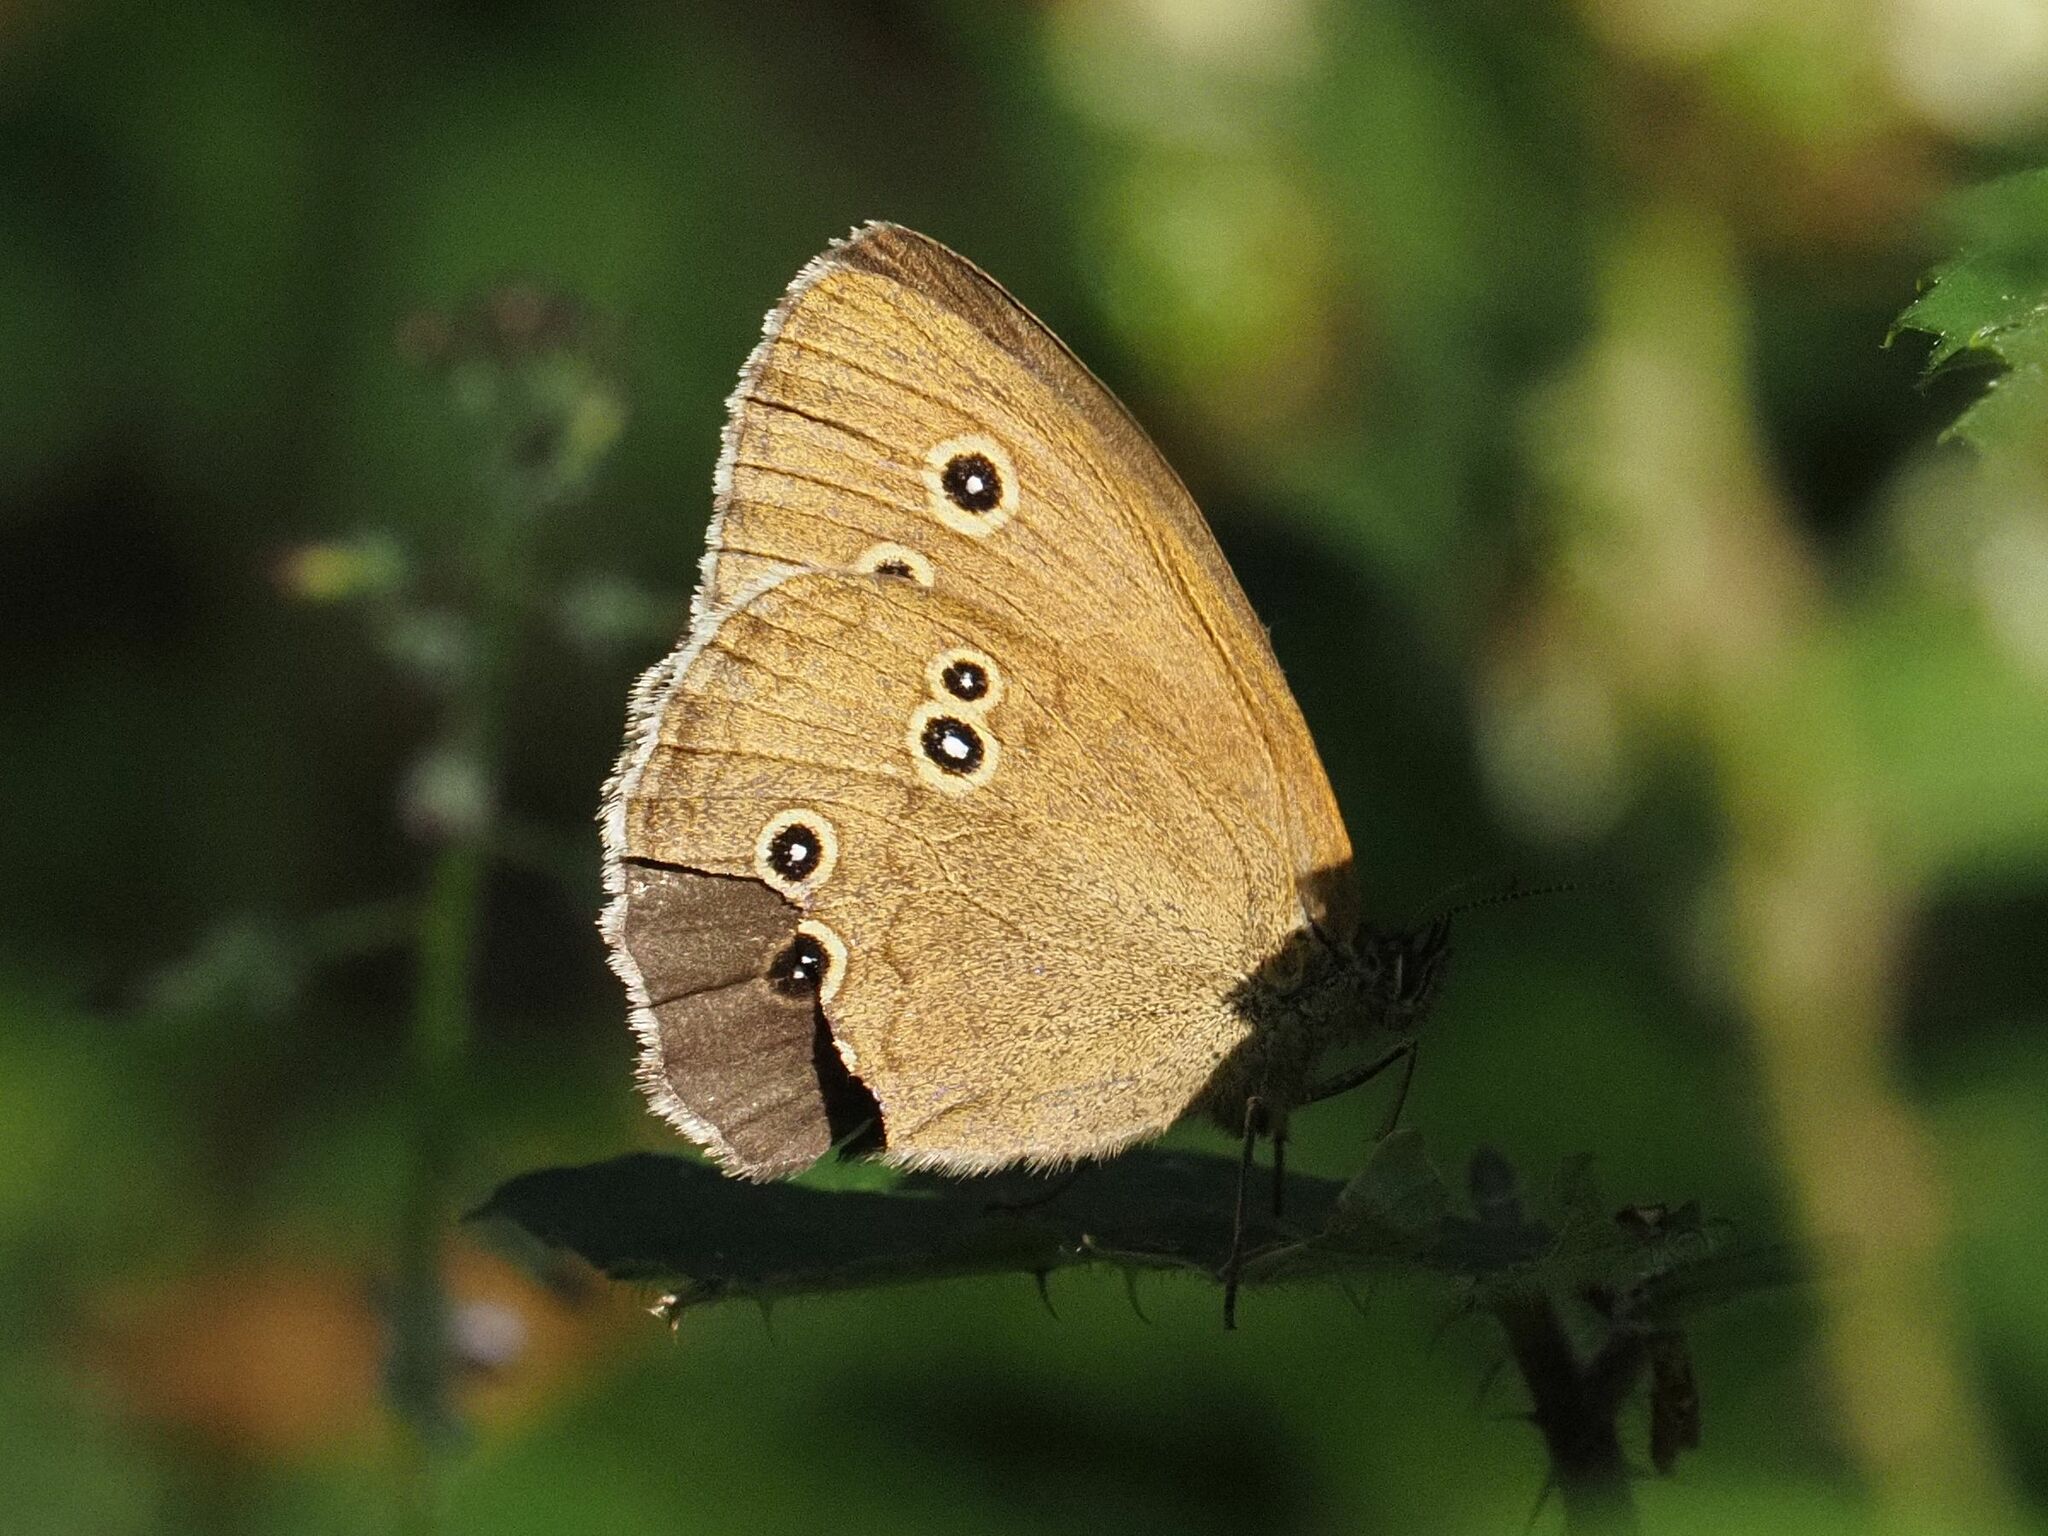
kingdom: Animalia
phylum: Arthropoda
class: Insecta
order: Lepidoptera
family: Nymphalidae
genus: Aphantopus
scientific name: Aphantopus hyperantus
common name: Ringlet
